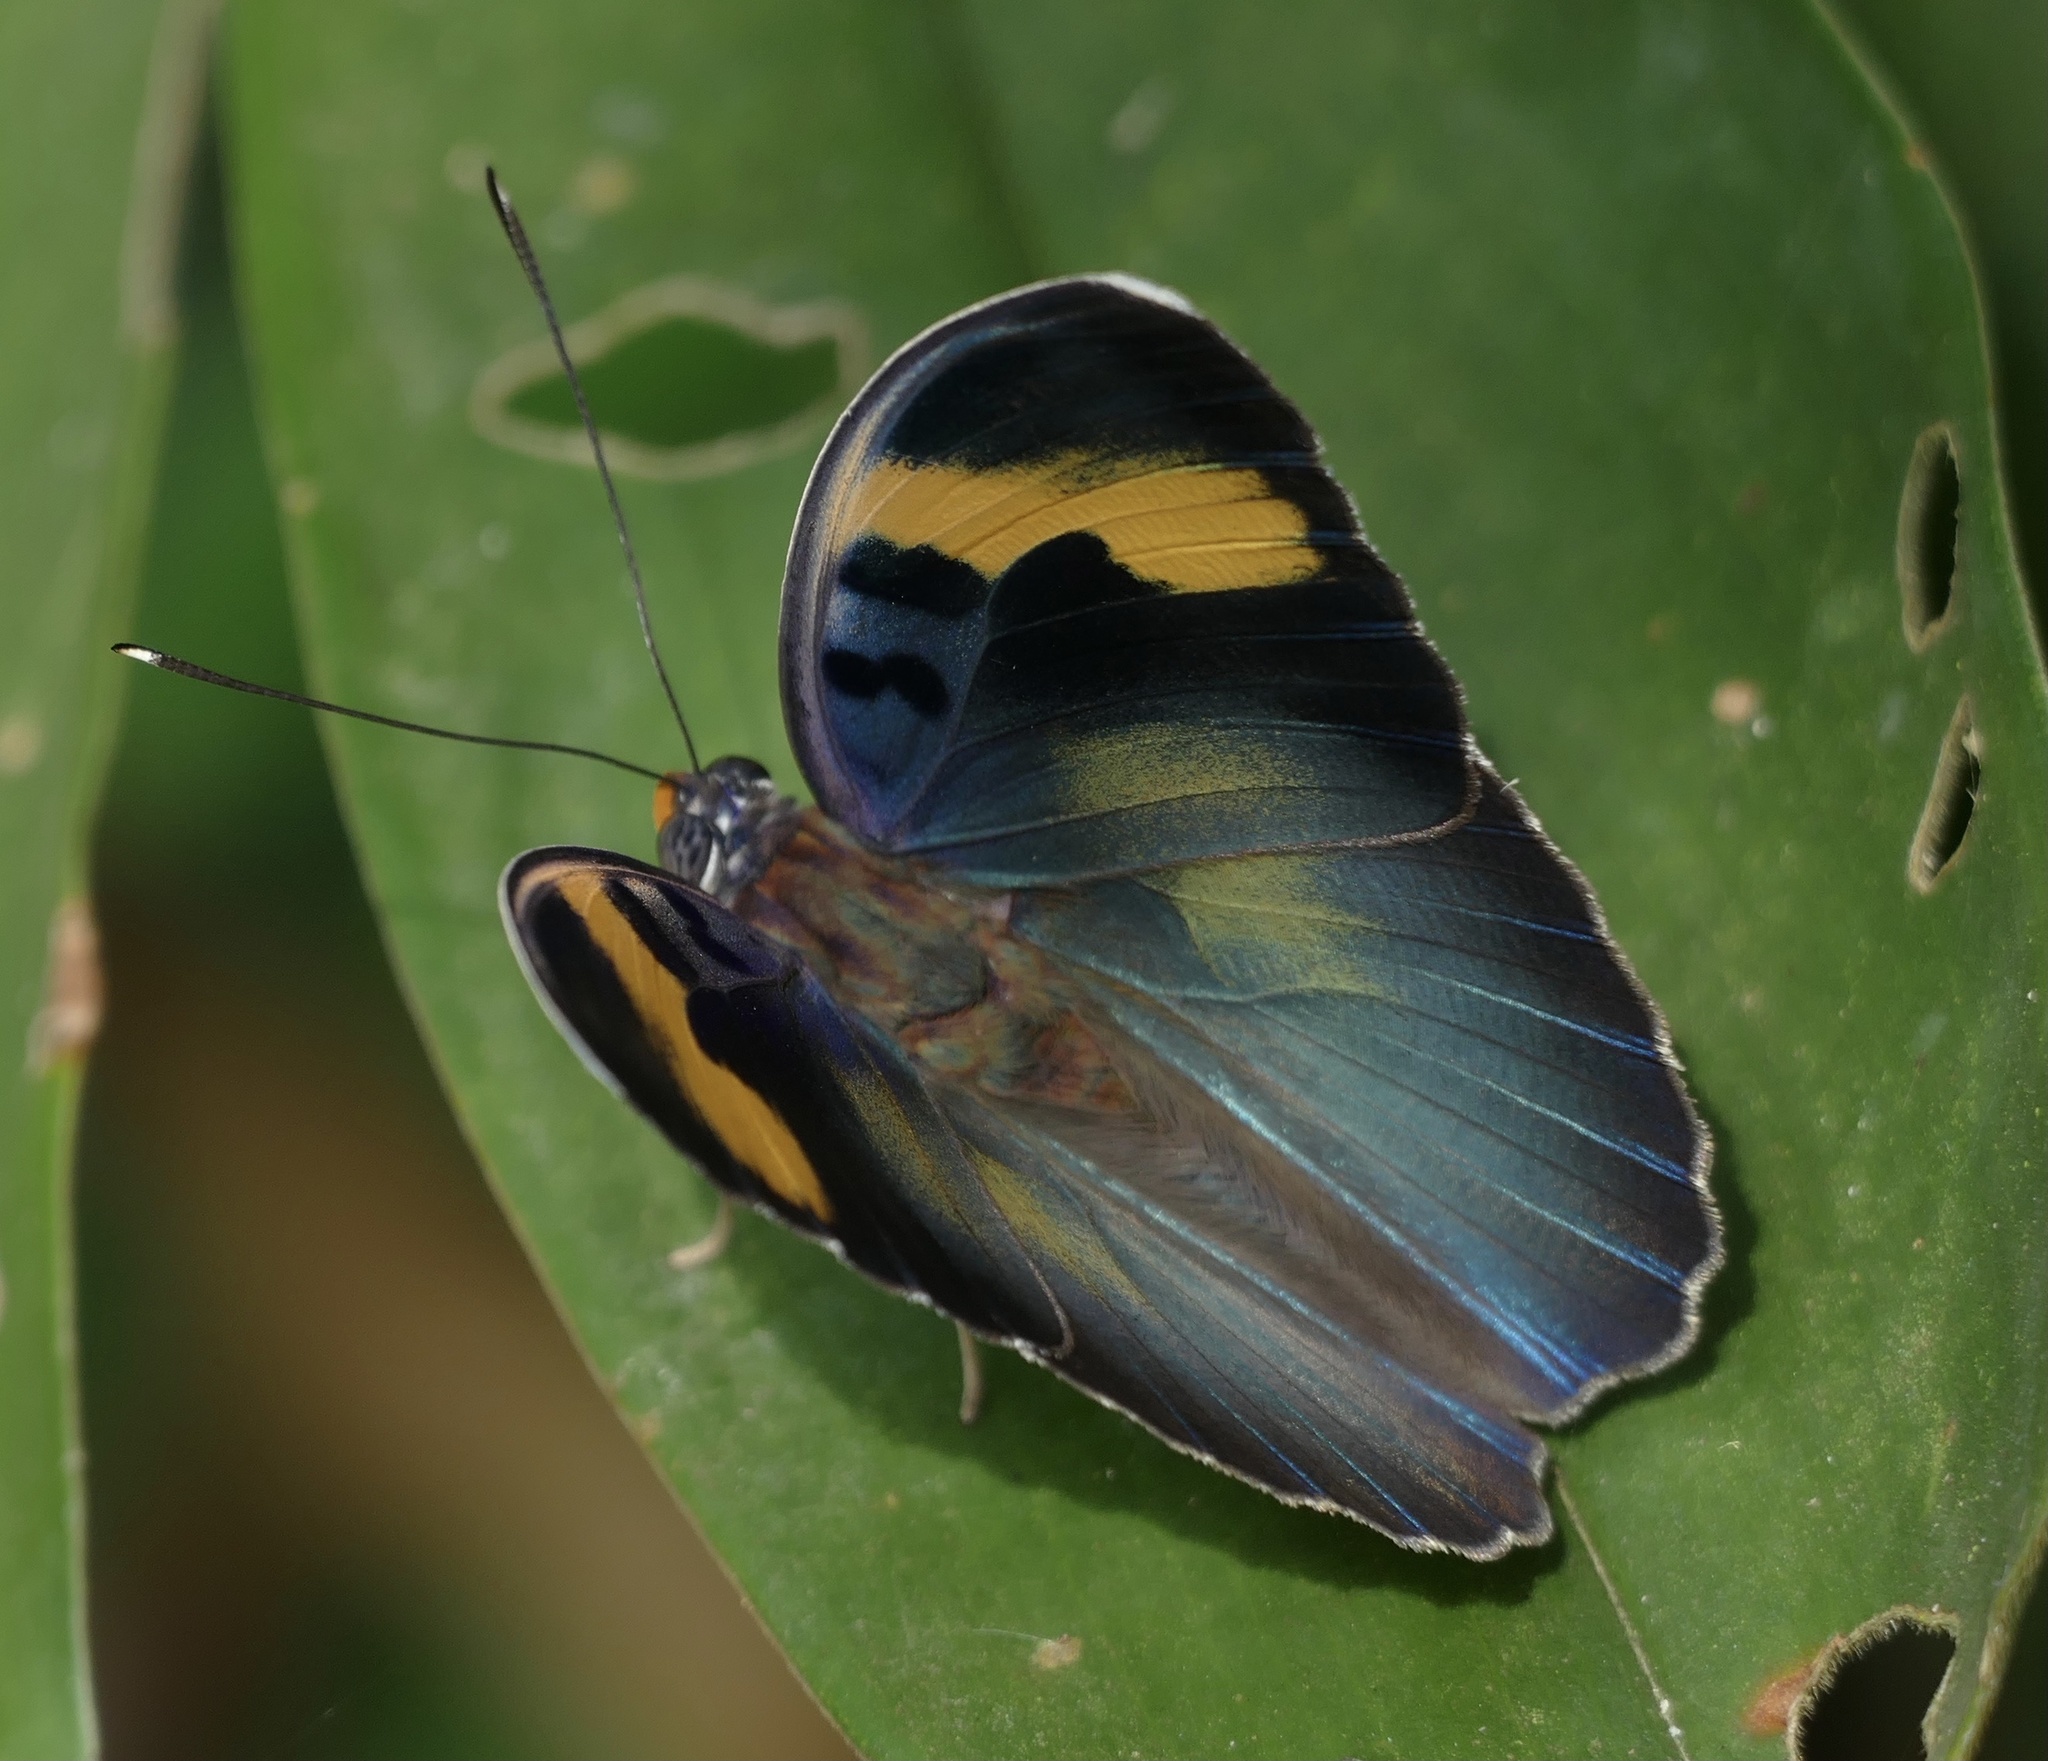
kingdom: Animalia
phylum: Arthropoda
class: Insecta
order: Lepidoptera
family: Nymphalidae
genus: Euphaedra
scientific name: Euphaedra medon
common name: Widespread forester
